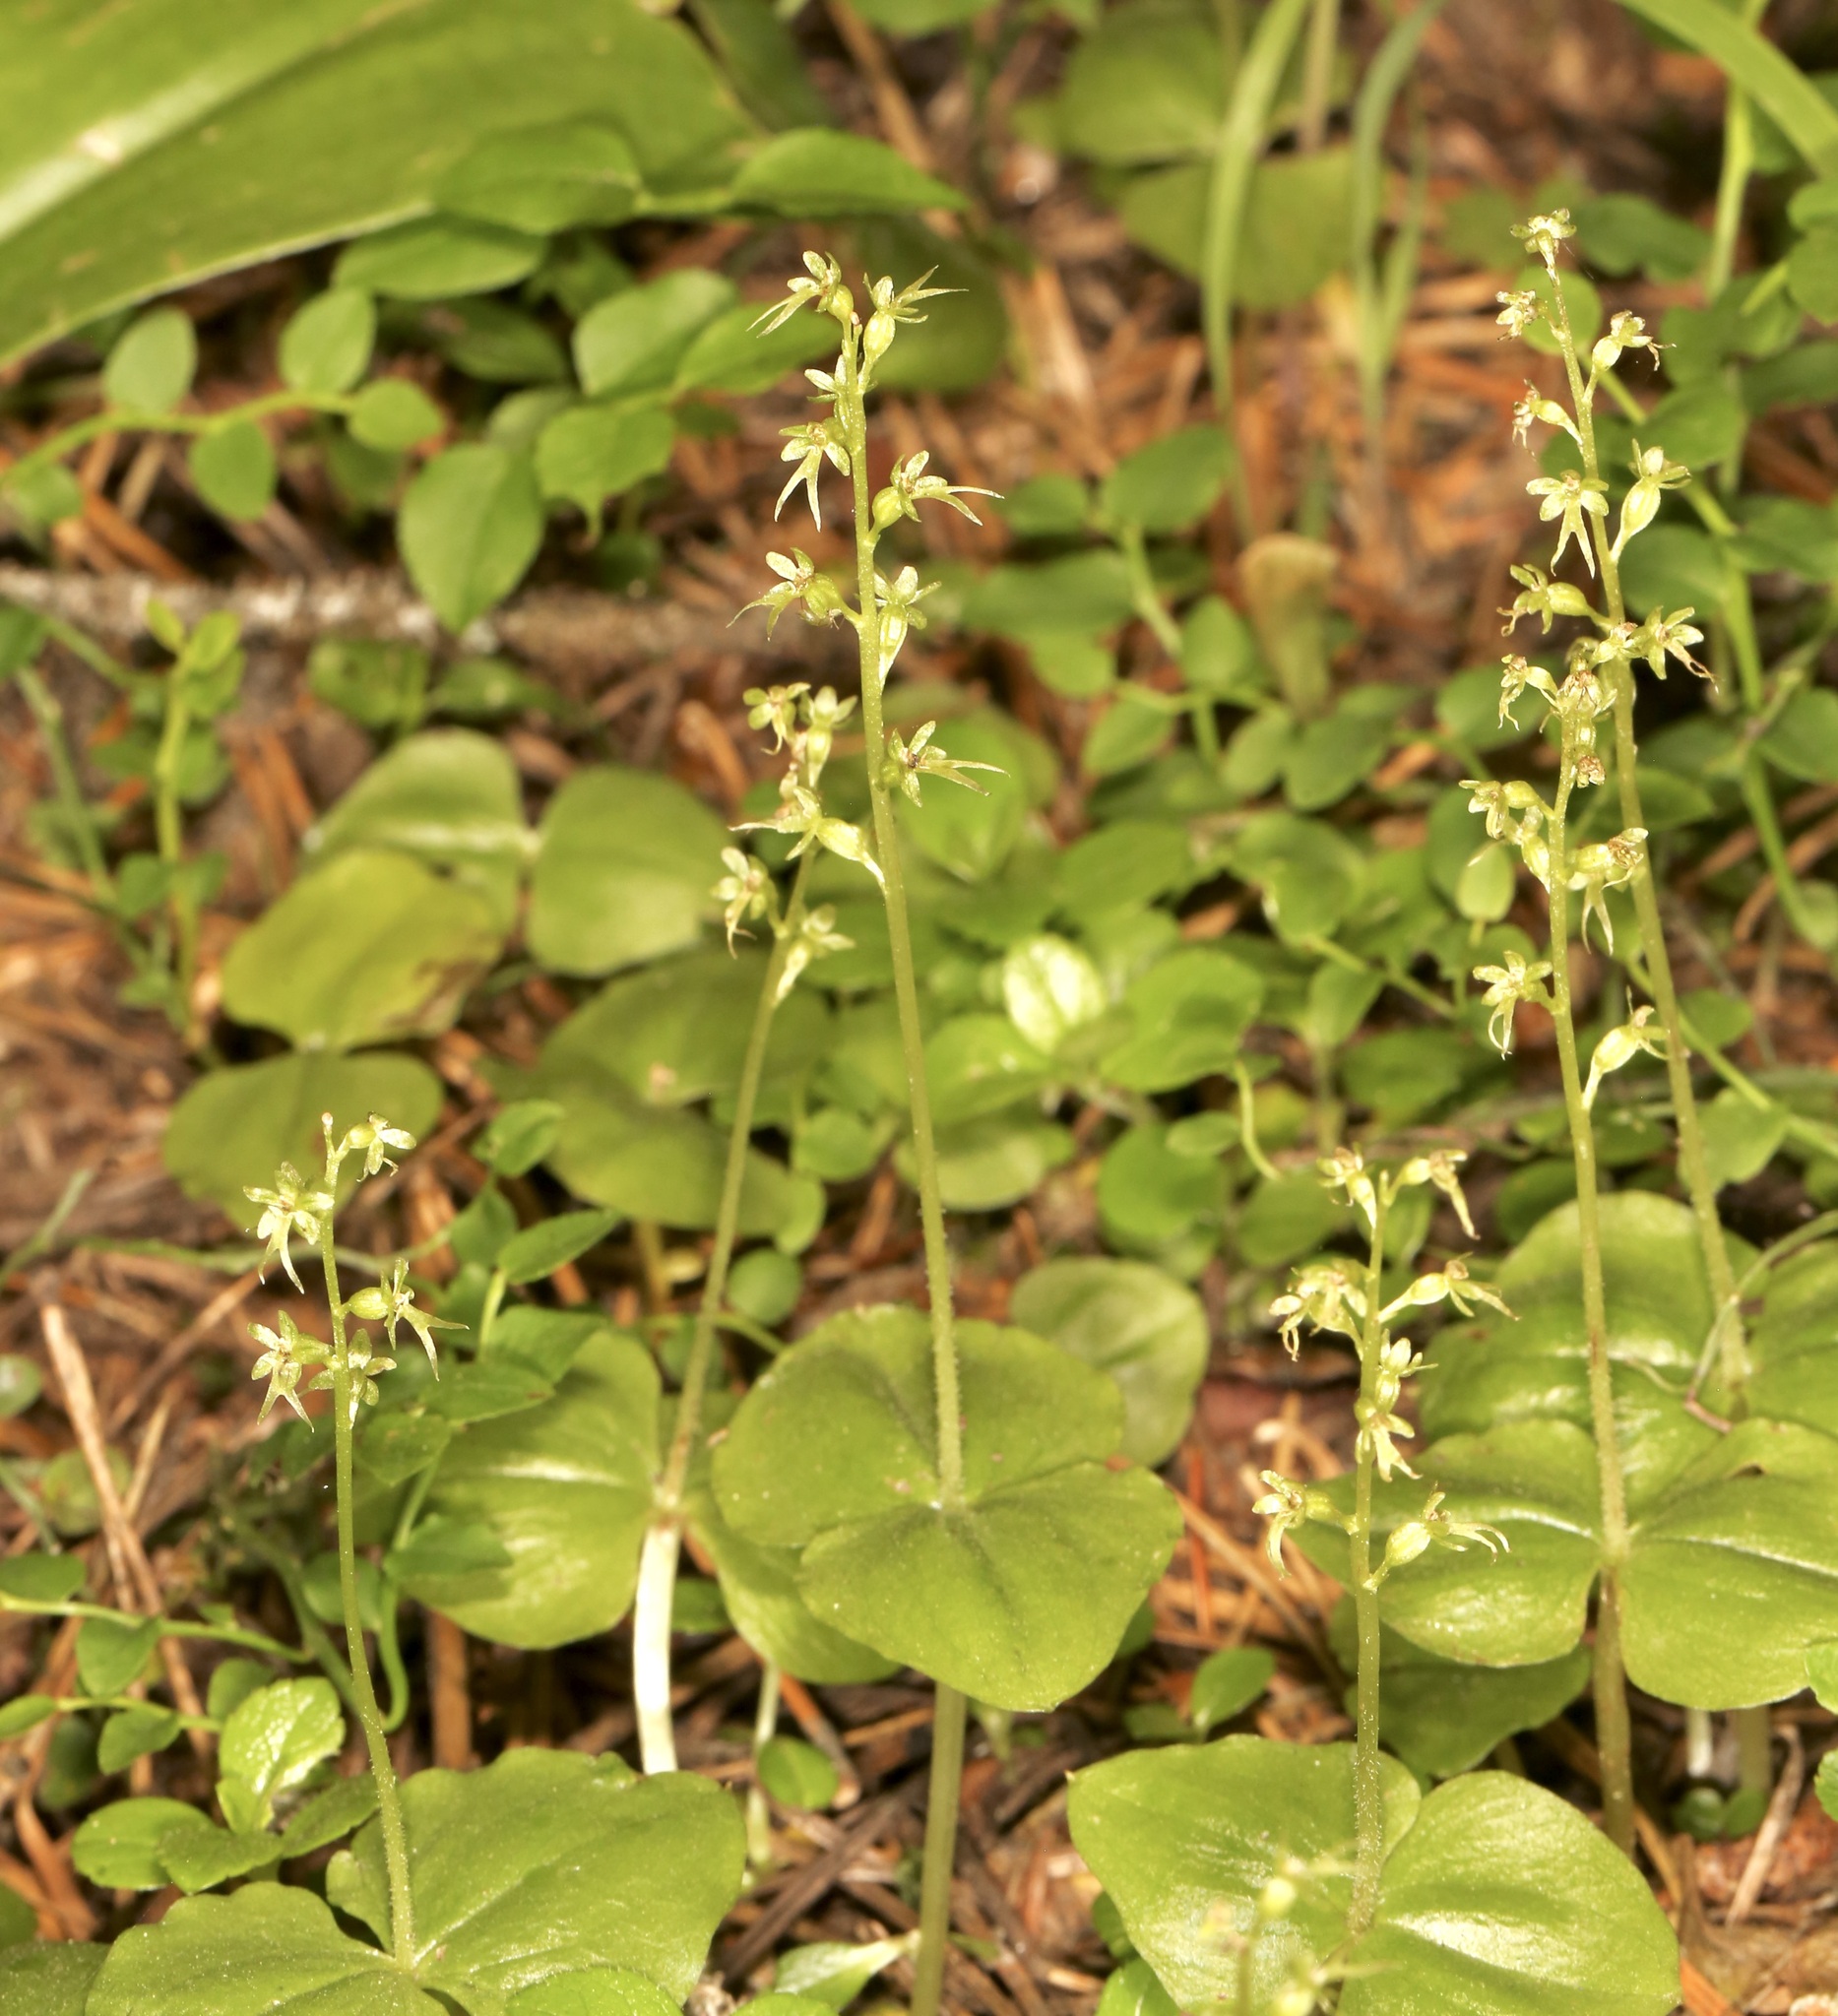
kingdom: Plantae
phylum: Tracheophyta
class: Liliopsida
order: Asparagales
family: Orchidaceae
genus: Neottia
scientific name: Neottia cordata
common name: Lesser twayblade
